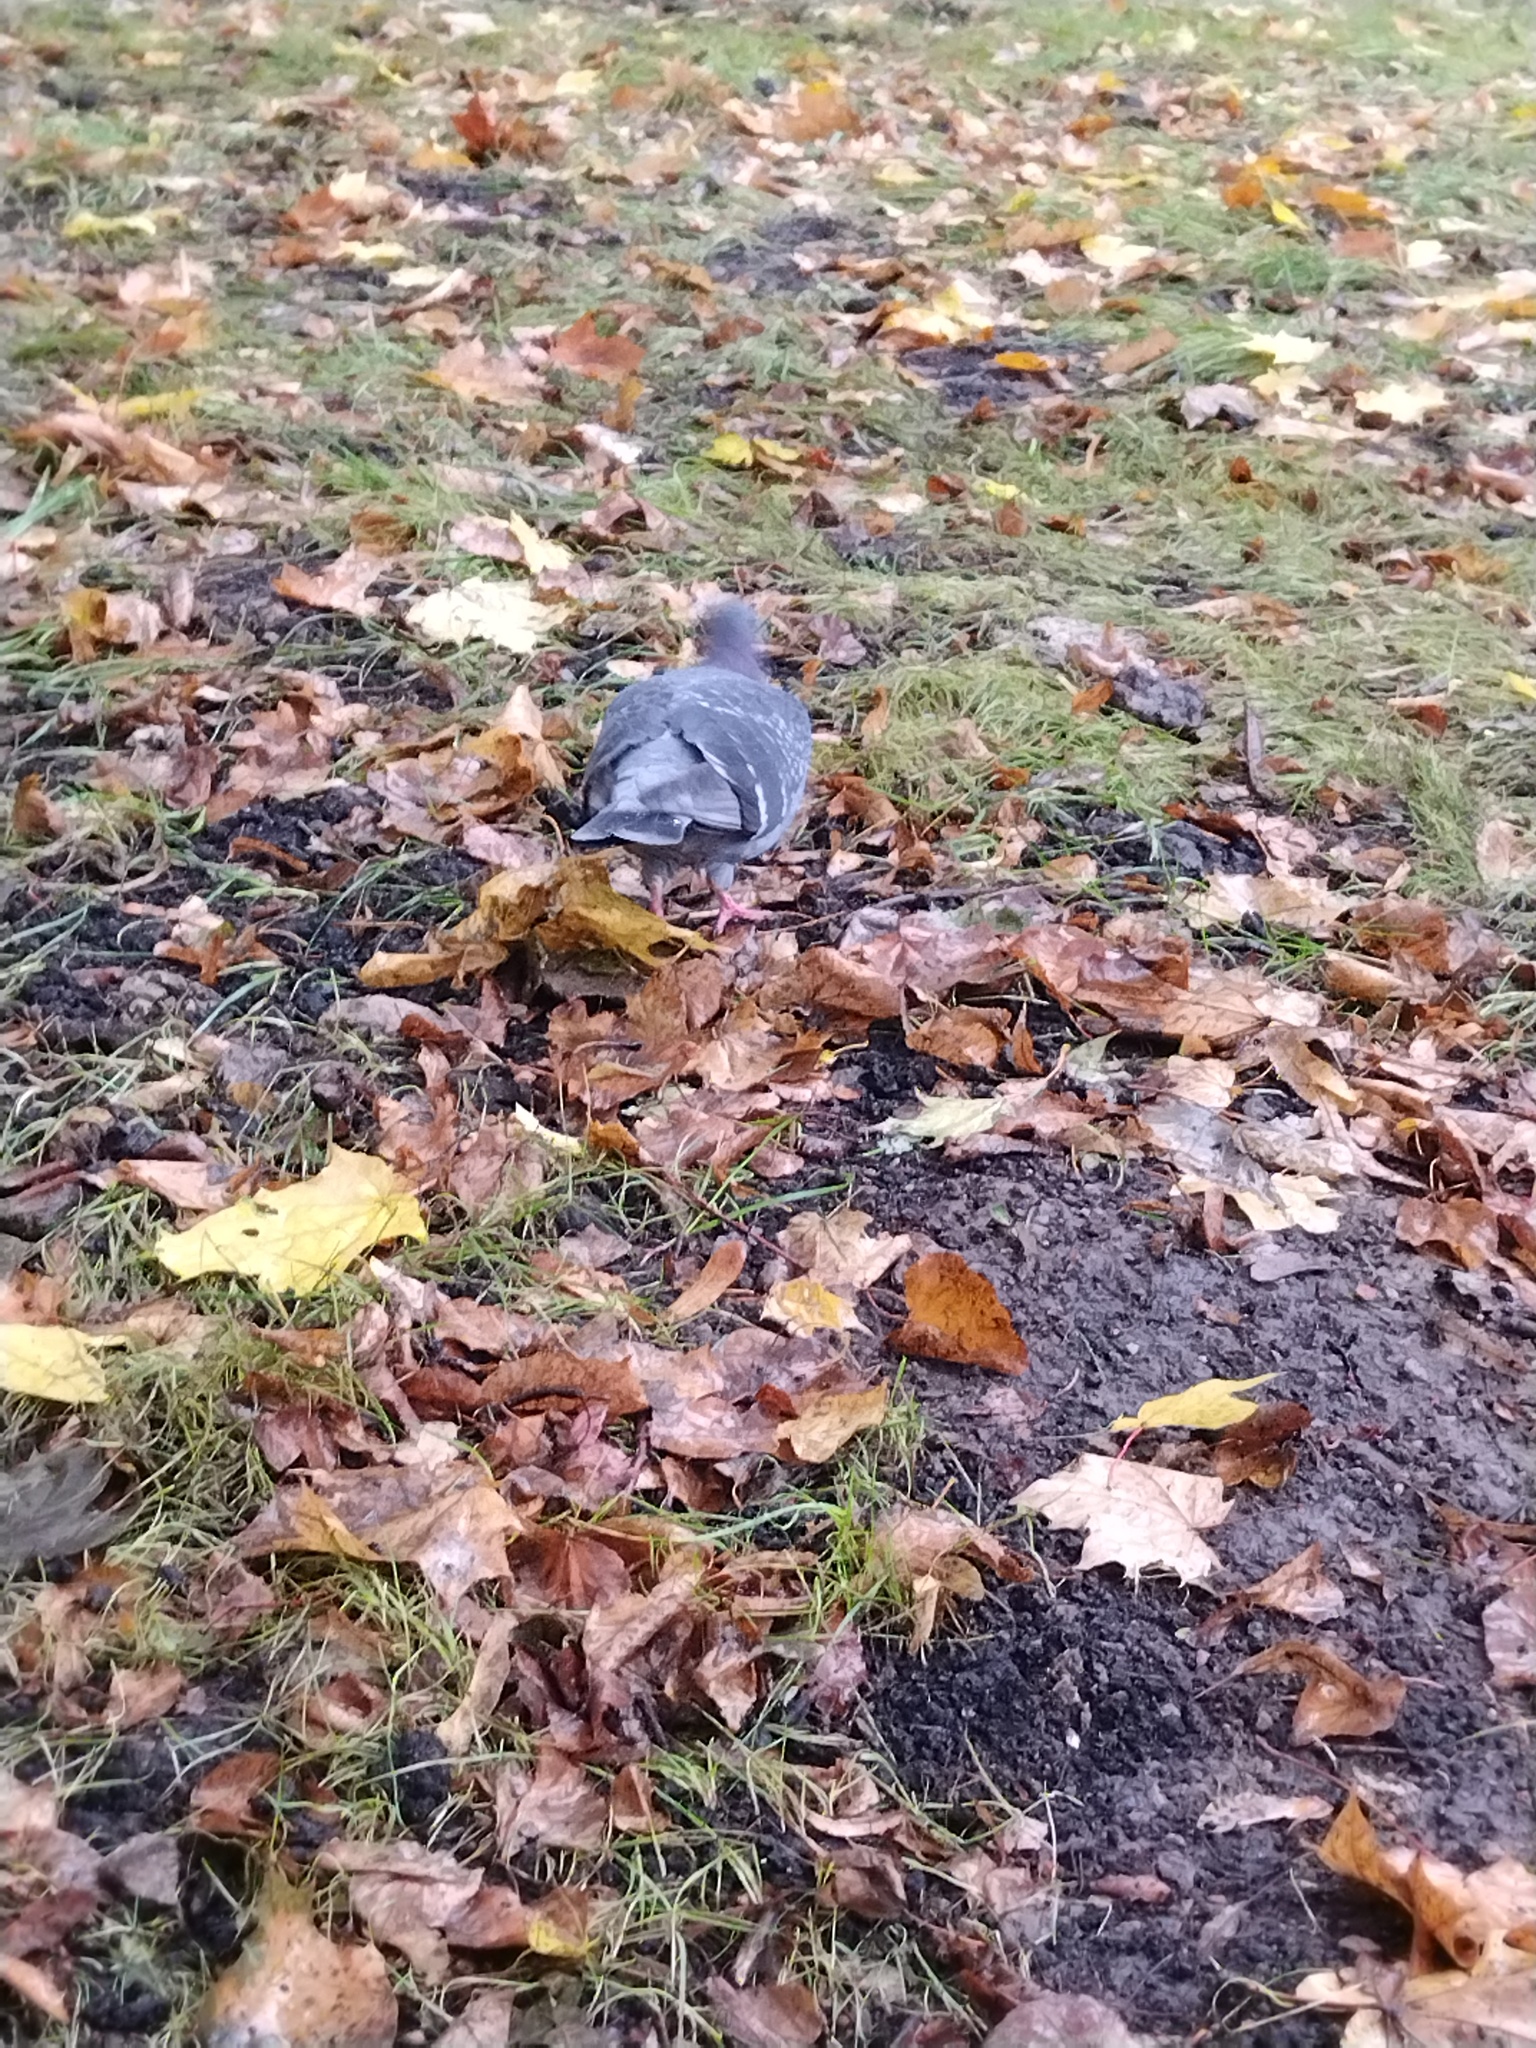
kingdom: Animalia
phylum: Chordata
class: Aves
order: Columbiformes
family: Columbidae
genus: Columba
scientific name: Columba livia
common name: Rock pigeon
